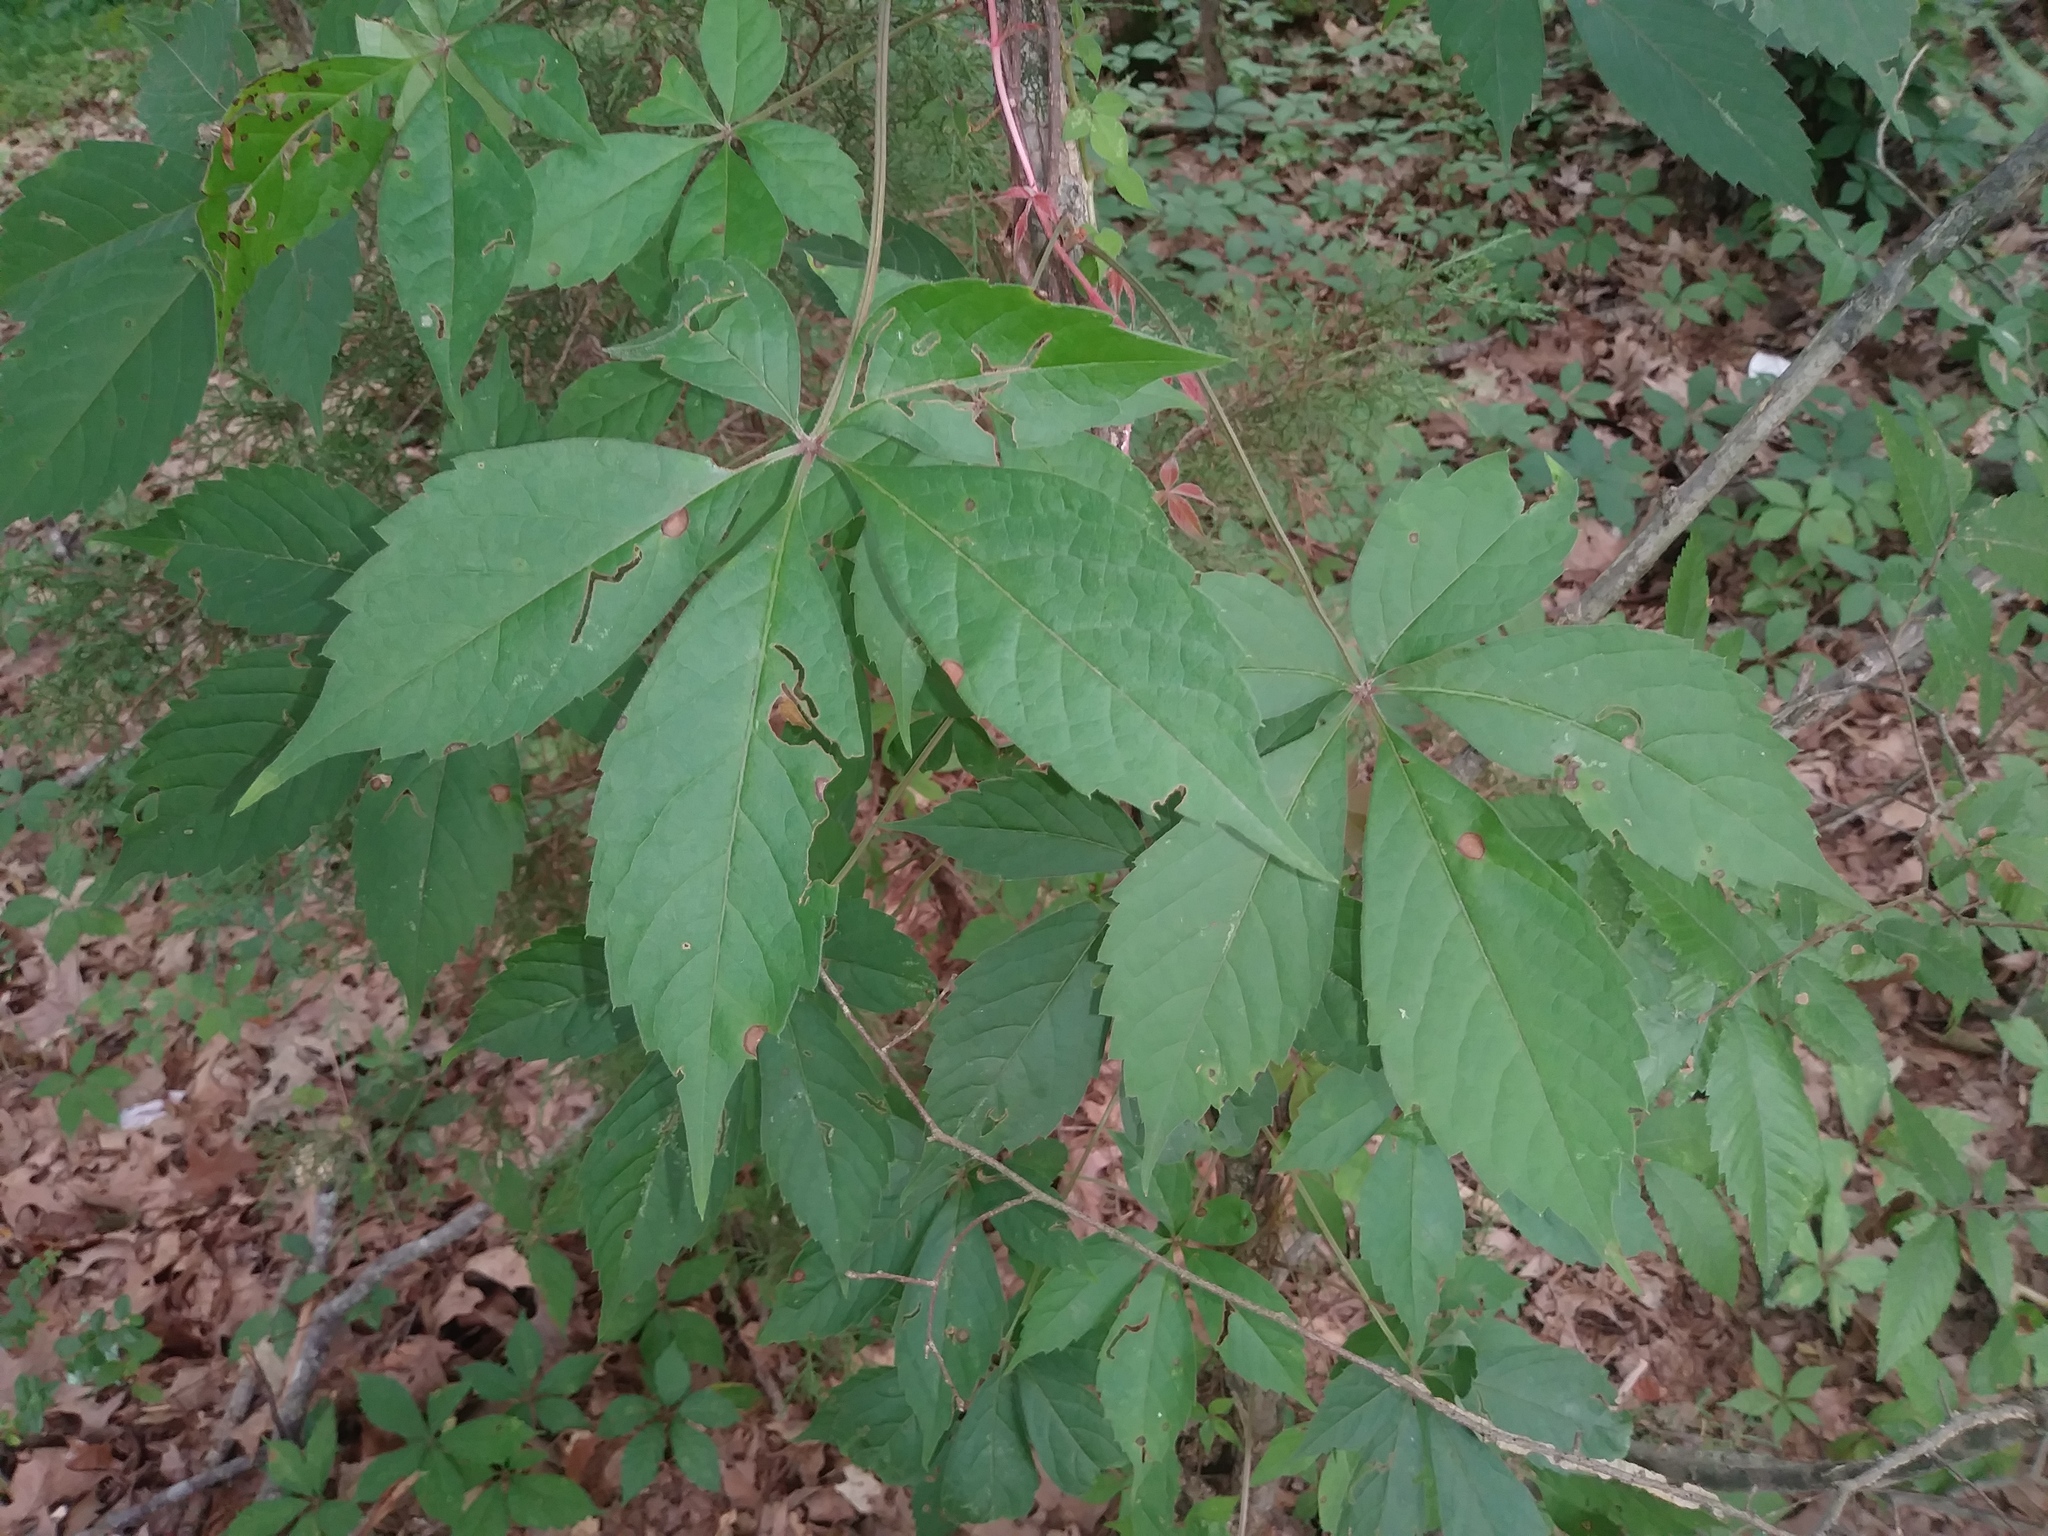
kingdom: Plantae
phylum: Tracheophyta
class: Magnoliopsida
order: Vitales
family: Vitaceae
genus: Parthenocissus
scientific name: Parthenocissus quinquefolia
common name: Virginia-creeper
